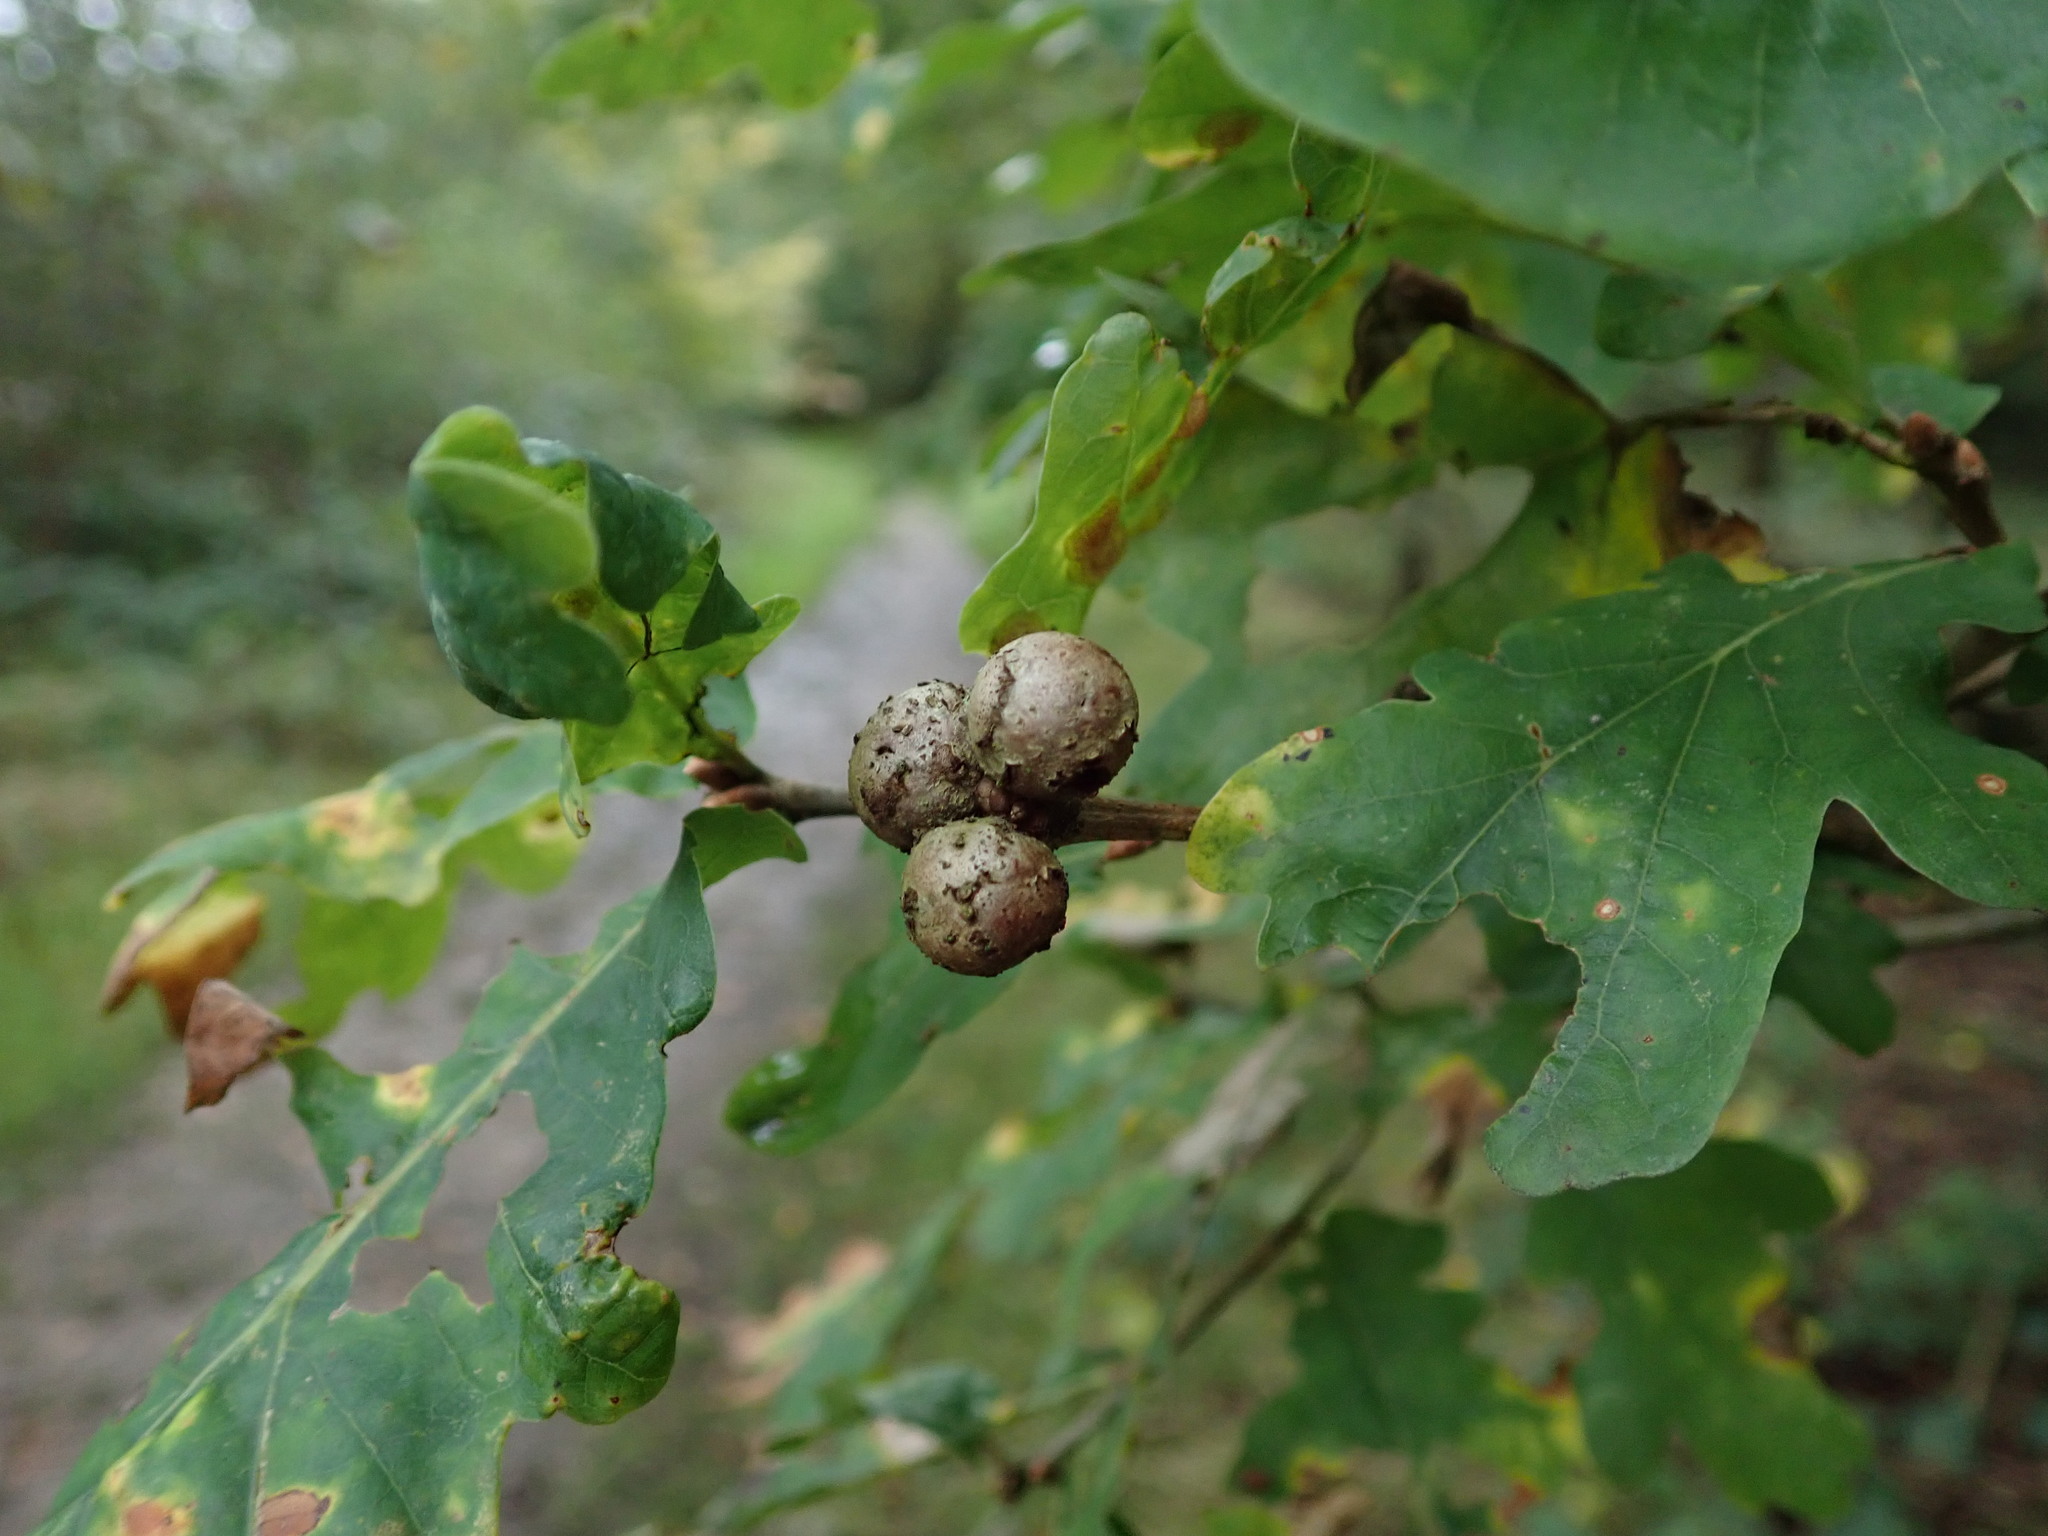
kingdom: Animalia
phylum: Arthropoda
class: Insecta
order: Hymenoptera
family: Cynipidae
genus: Andricus
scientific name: Andricus lignicolus
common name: Cola-nut gall
